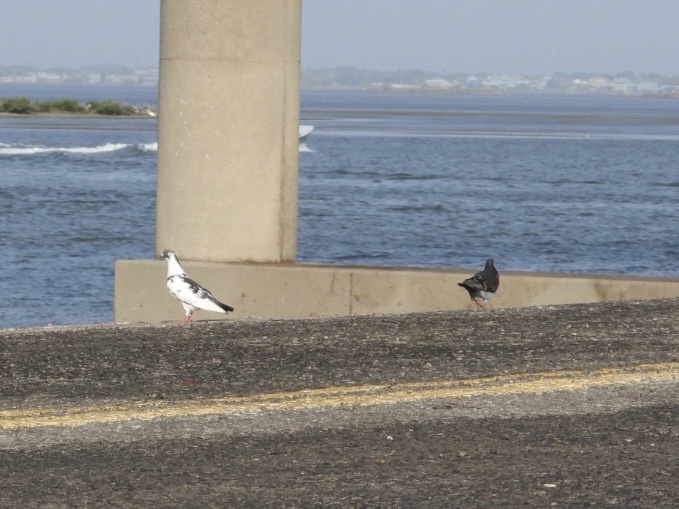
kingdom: Animalia
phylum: Chordata
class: Aves
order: Columbiformes
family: Columbidae
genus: Columba
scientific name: Columba livia
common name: Rock pigeon
